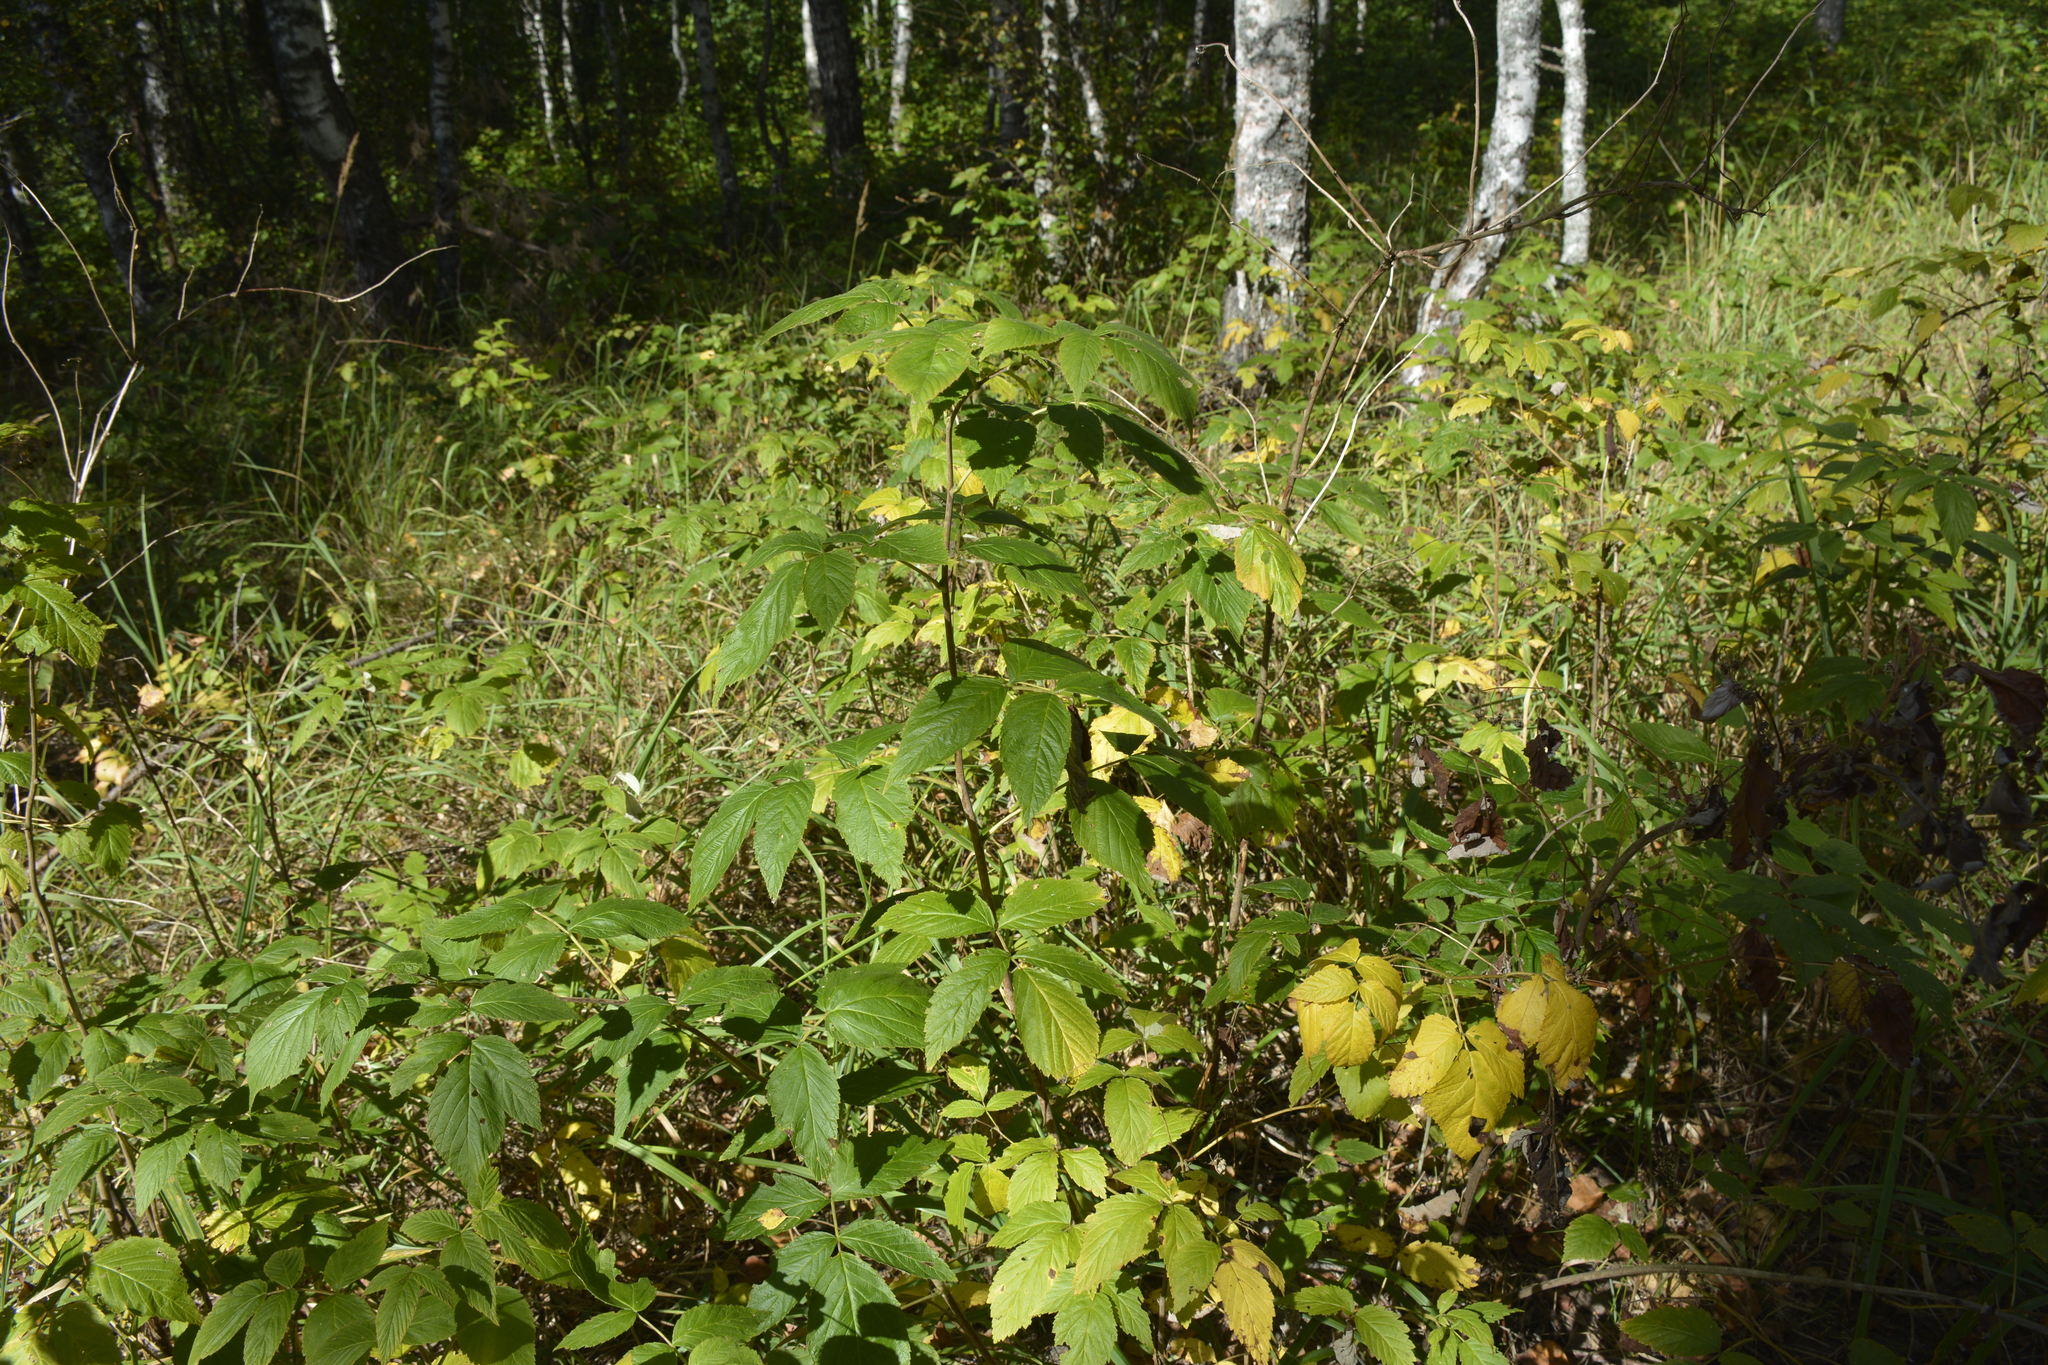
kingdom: Plantae
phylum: Tracheophyta
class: Magnoliopsida
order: Rosales
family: Rosaceae
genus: Rubus
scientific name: Rubus idaeus
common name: Raspberry
